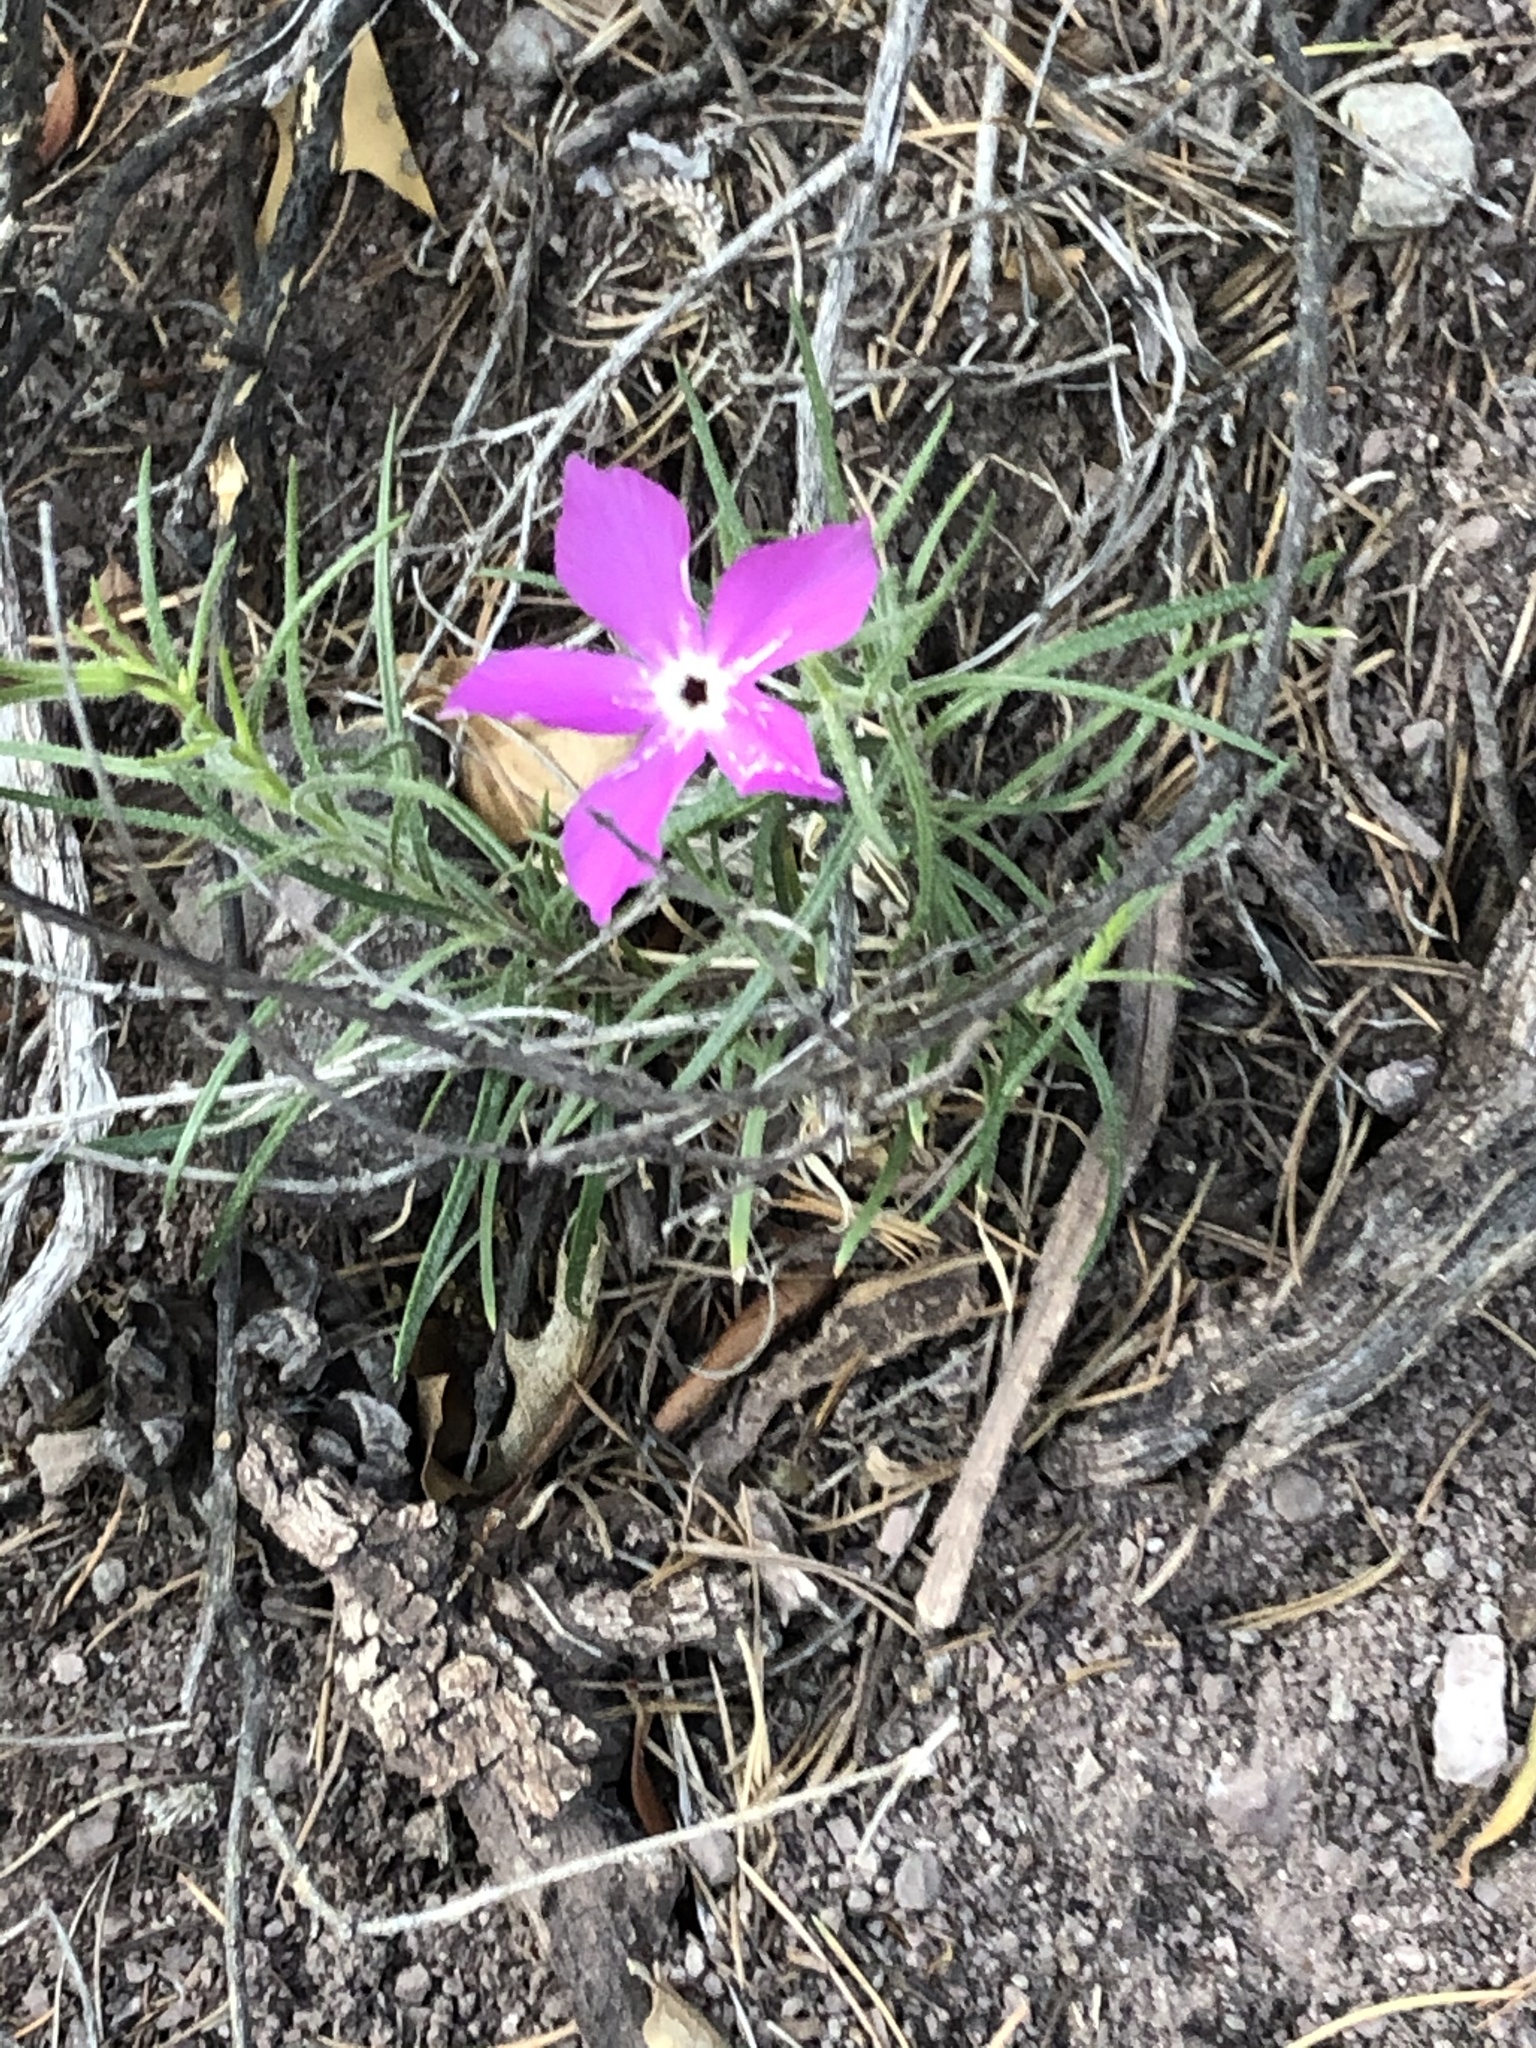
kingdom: Plantae
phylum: Tracheophyta
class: Magnoliopsida
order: Ericales
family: Polemoniaceae
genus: Phlox
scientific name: Phlox nana
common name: Santa fe phlox
